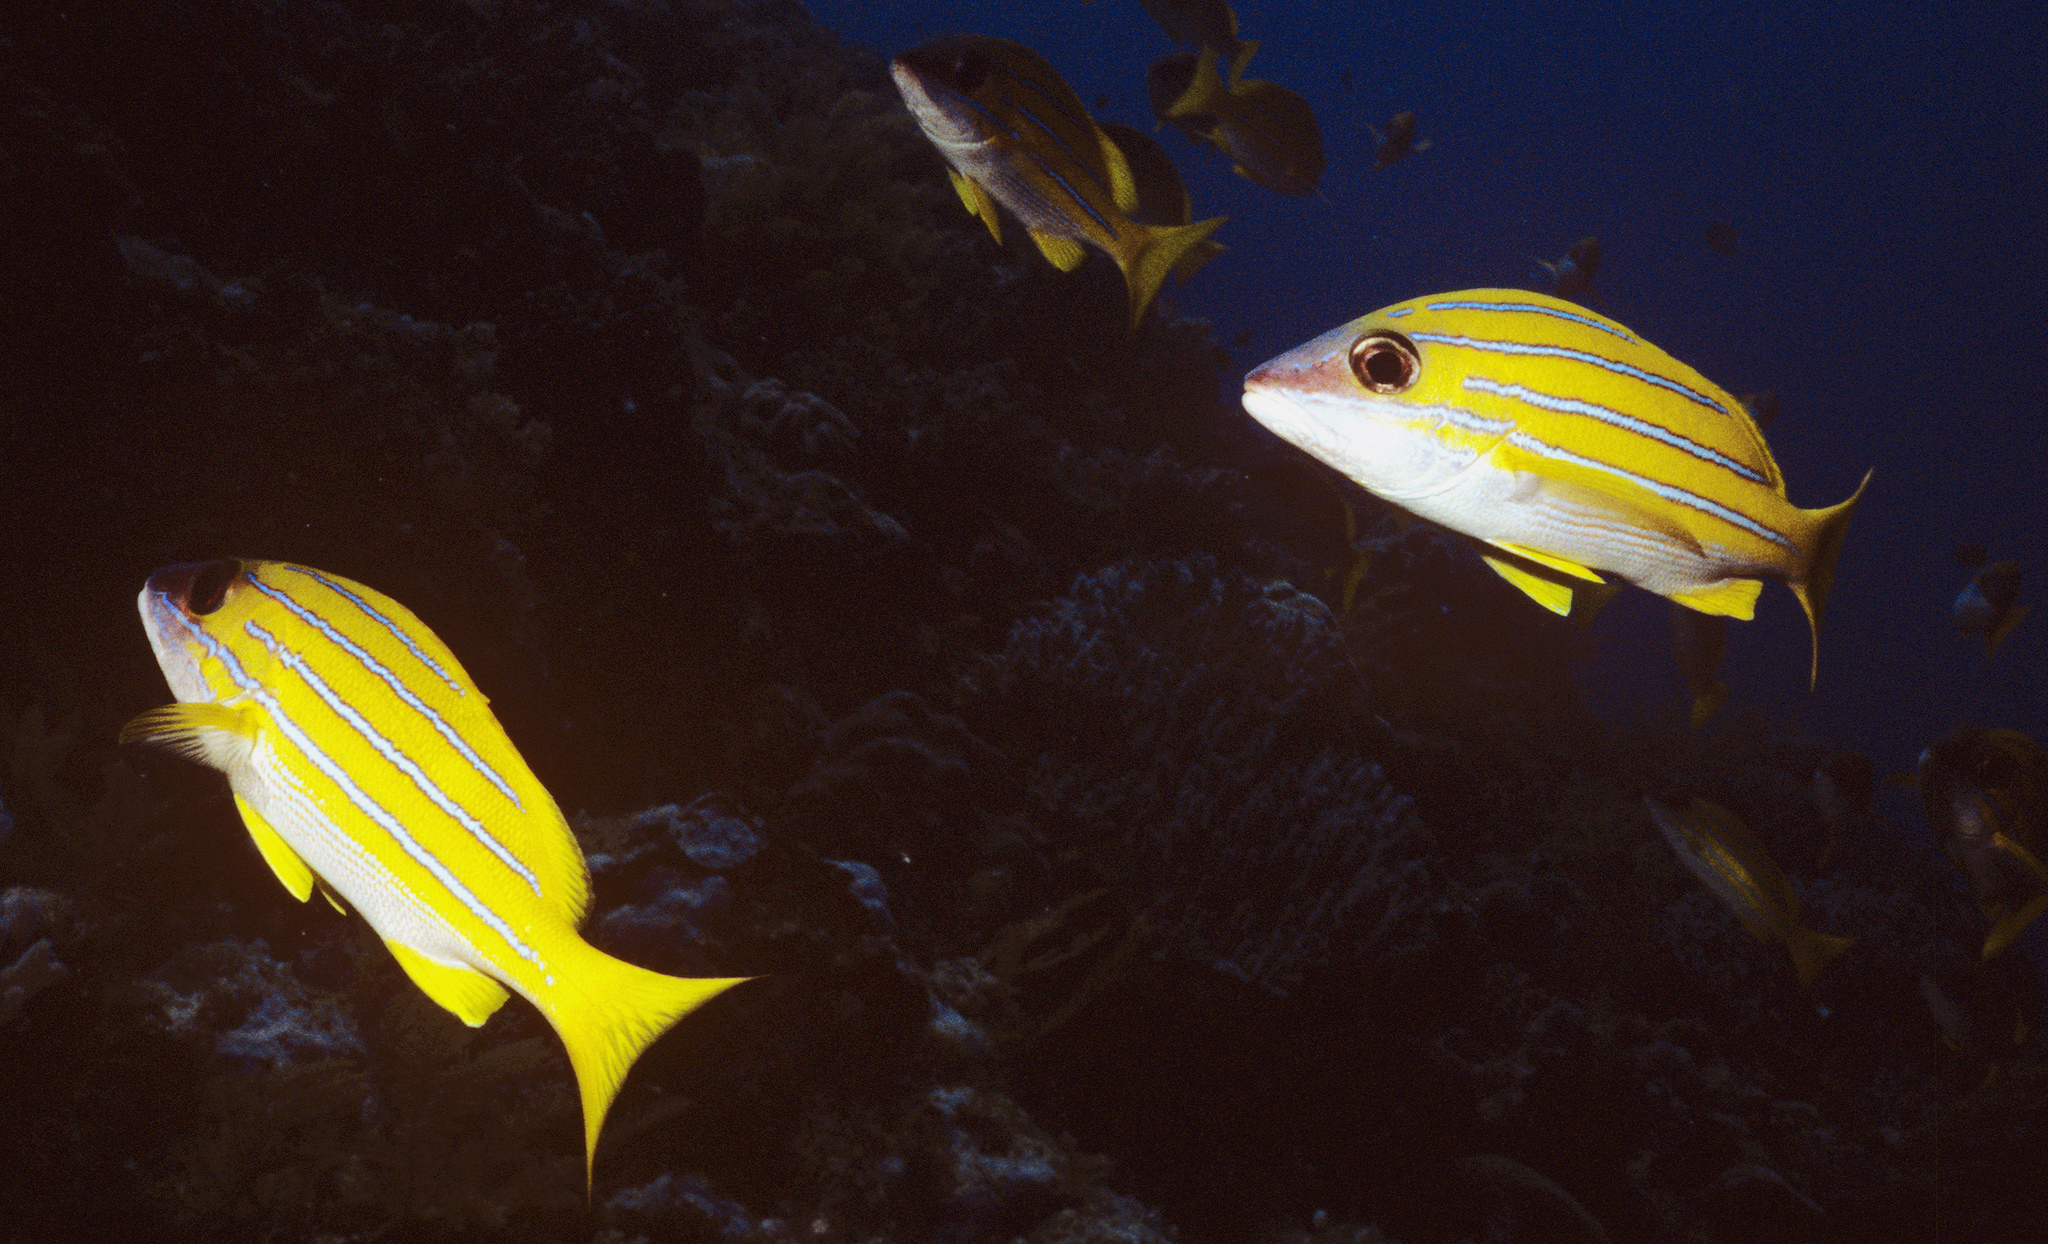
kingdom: Animalia
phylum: Chordata
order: Perciformes
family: Lutjanidae
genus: Lutjanus
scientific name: Lutjanus kasmira
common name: Common bluestripe snapper
